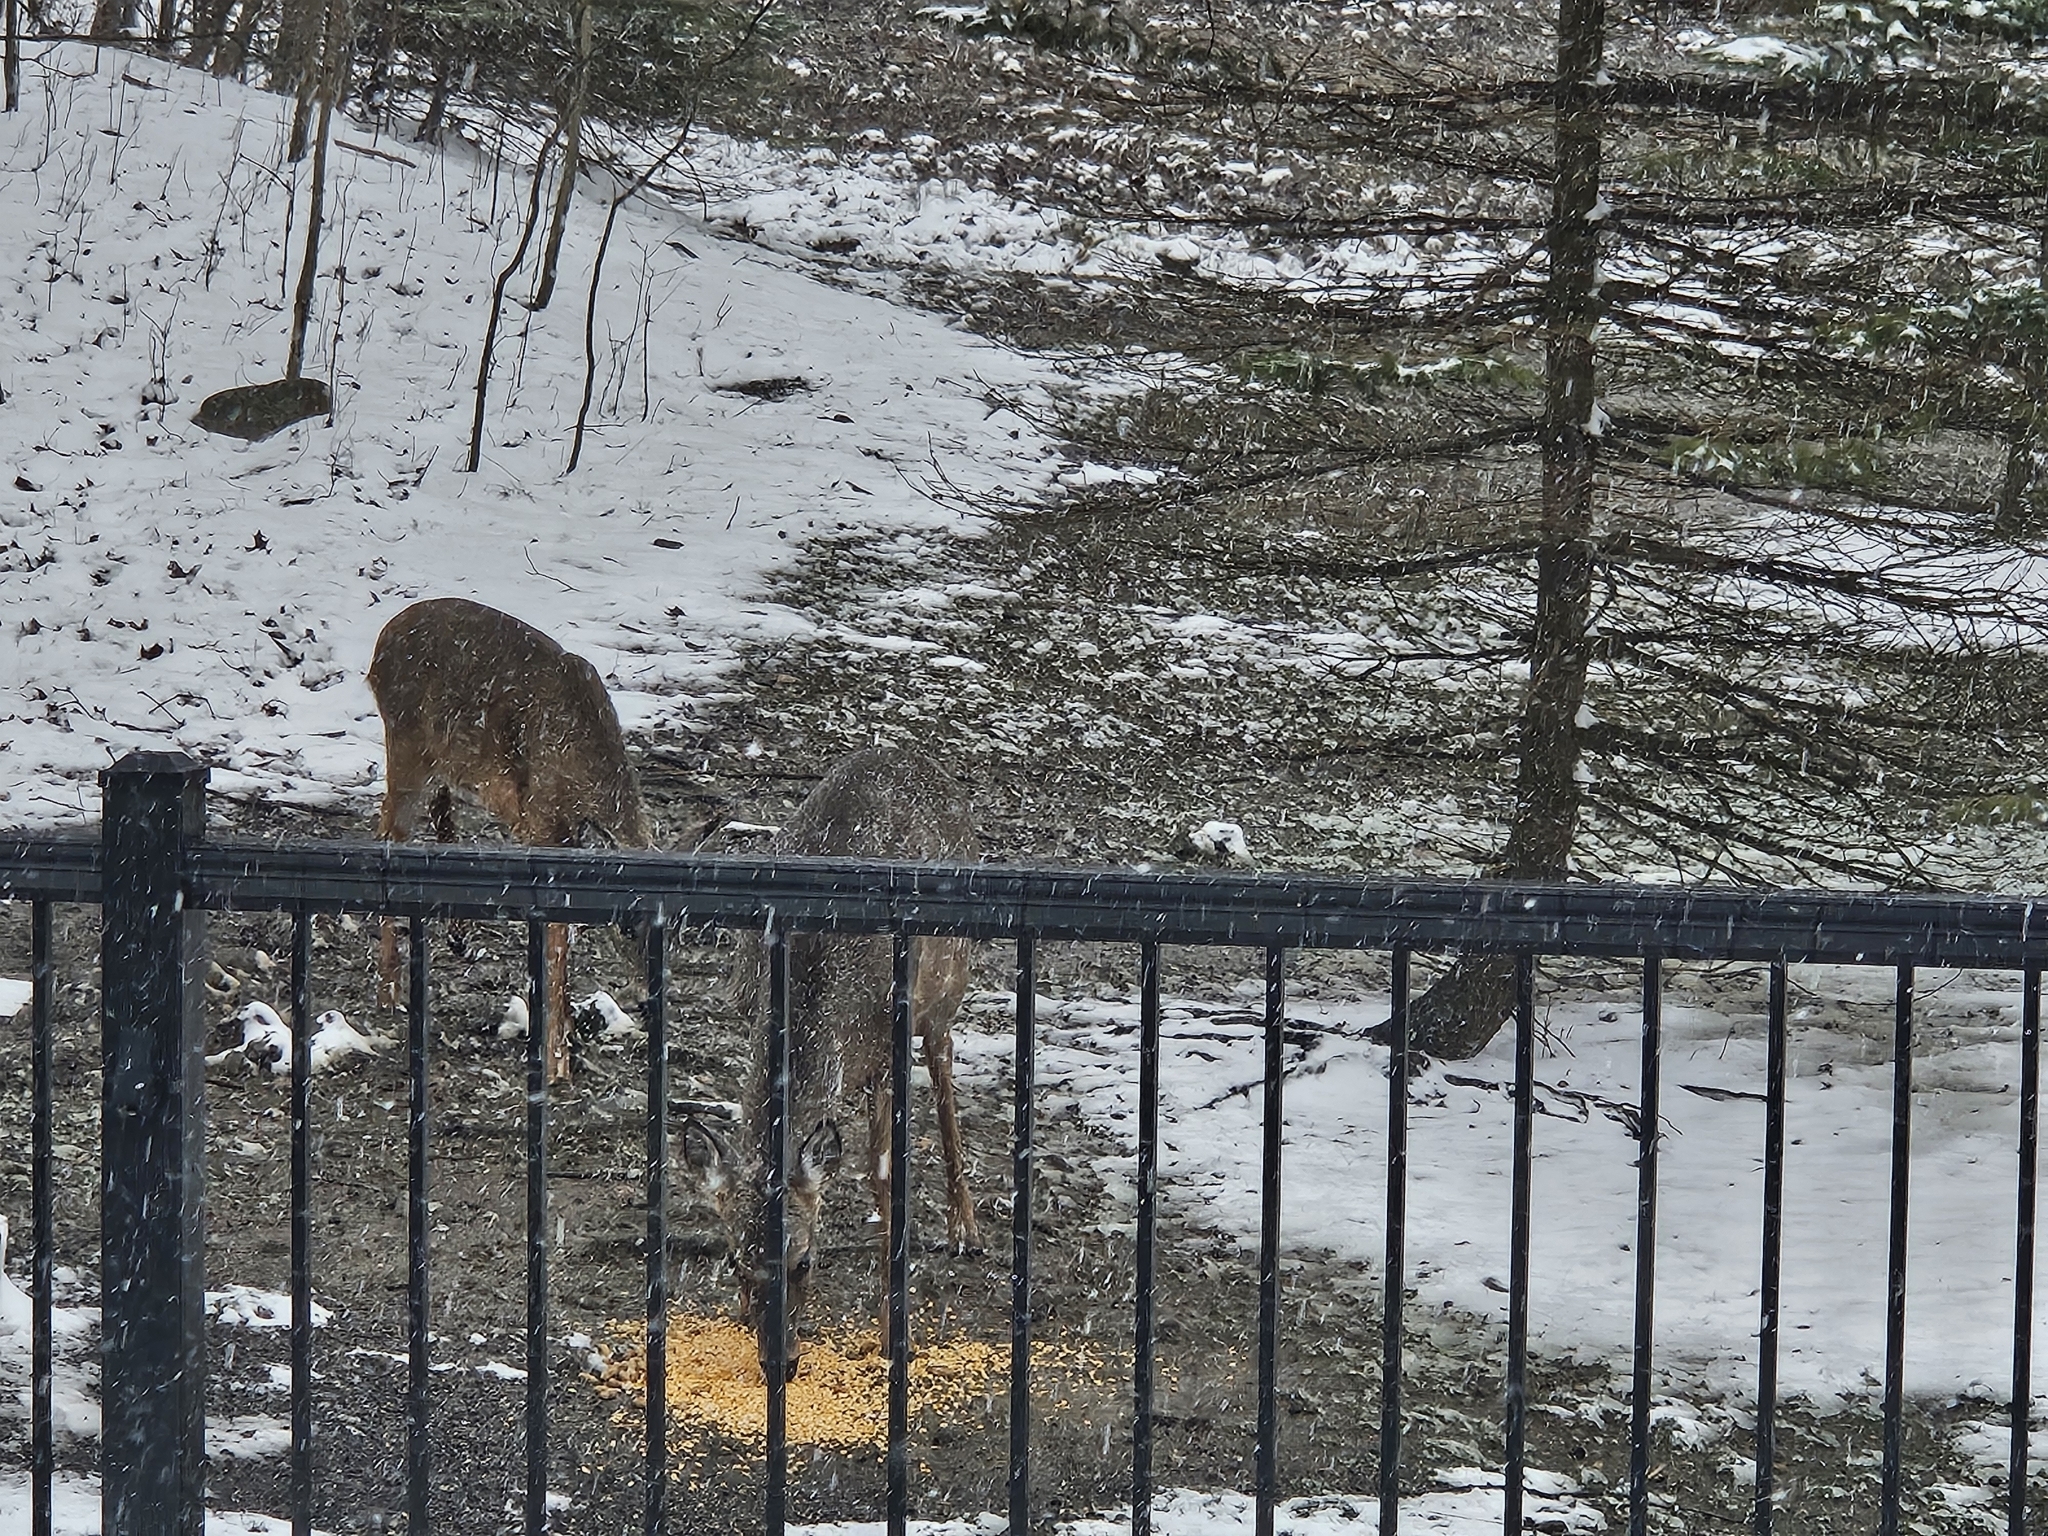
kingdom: Animalia
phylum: Chordata
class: Mammalia
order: Artiodactyla
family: Cervidae
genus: Odocoileus
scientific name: Odocoileus virginianus
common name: White-tailed deer
